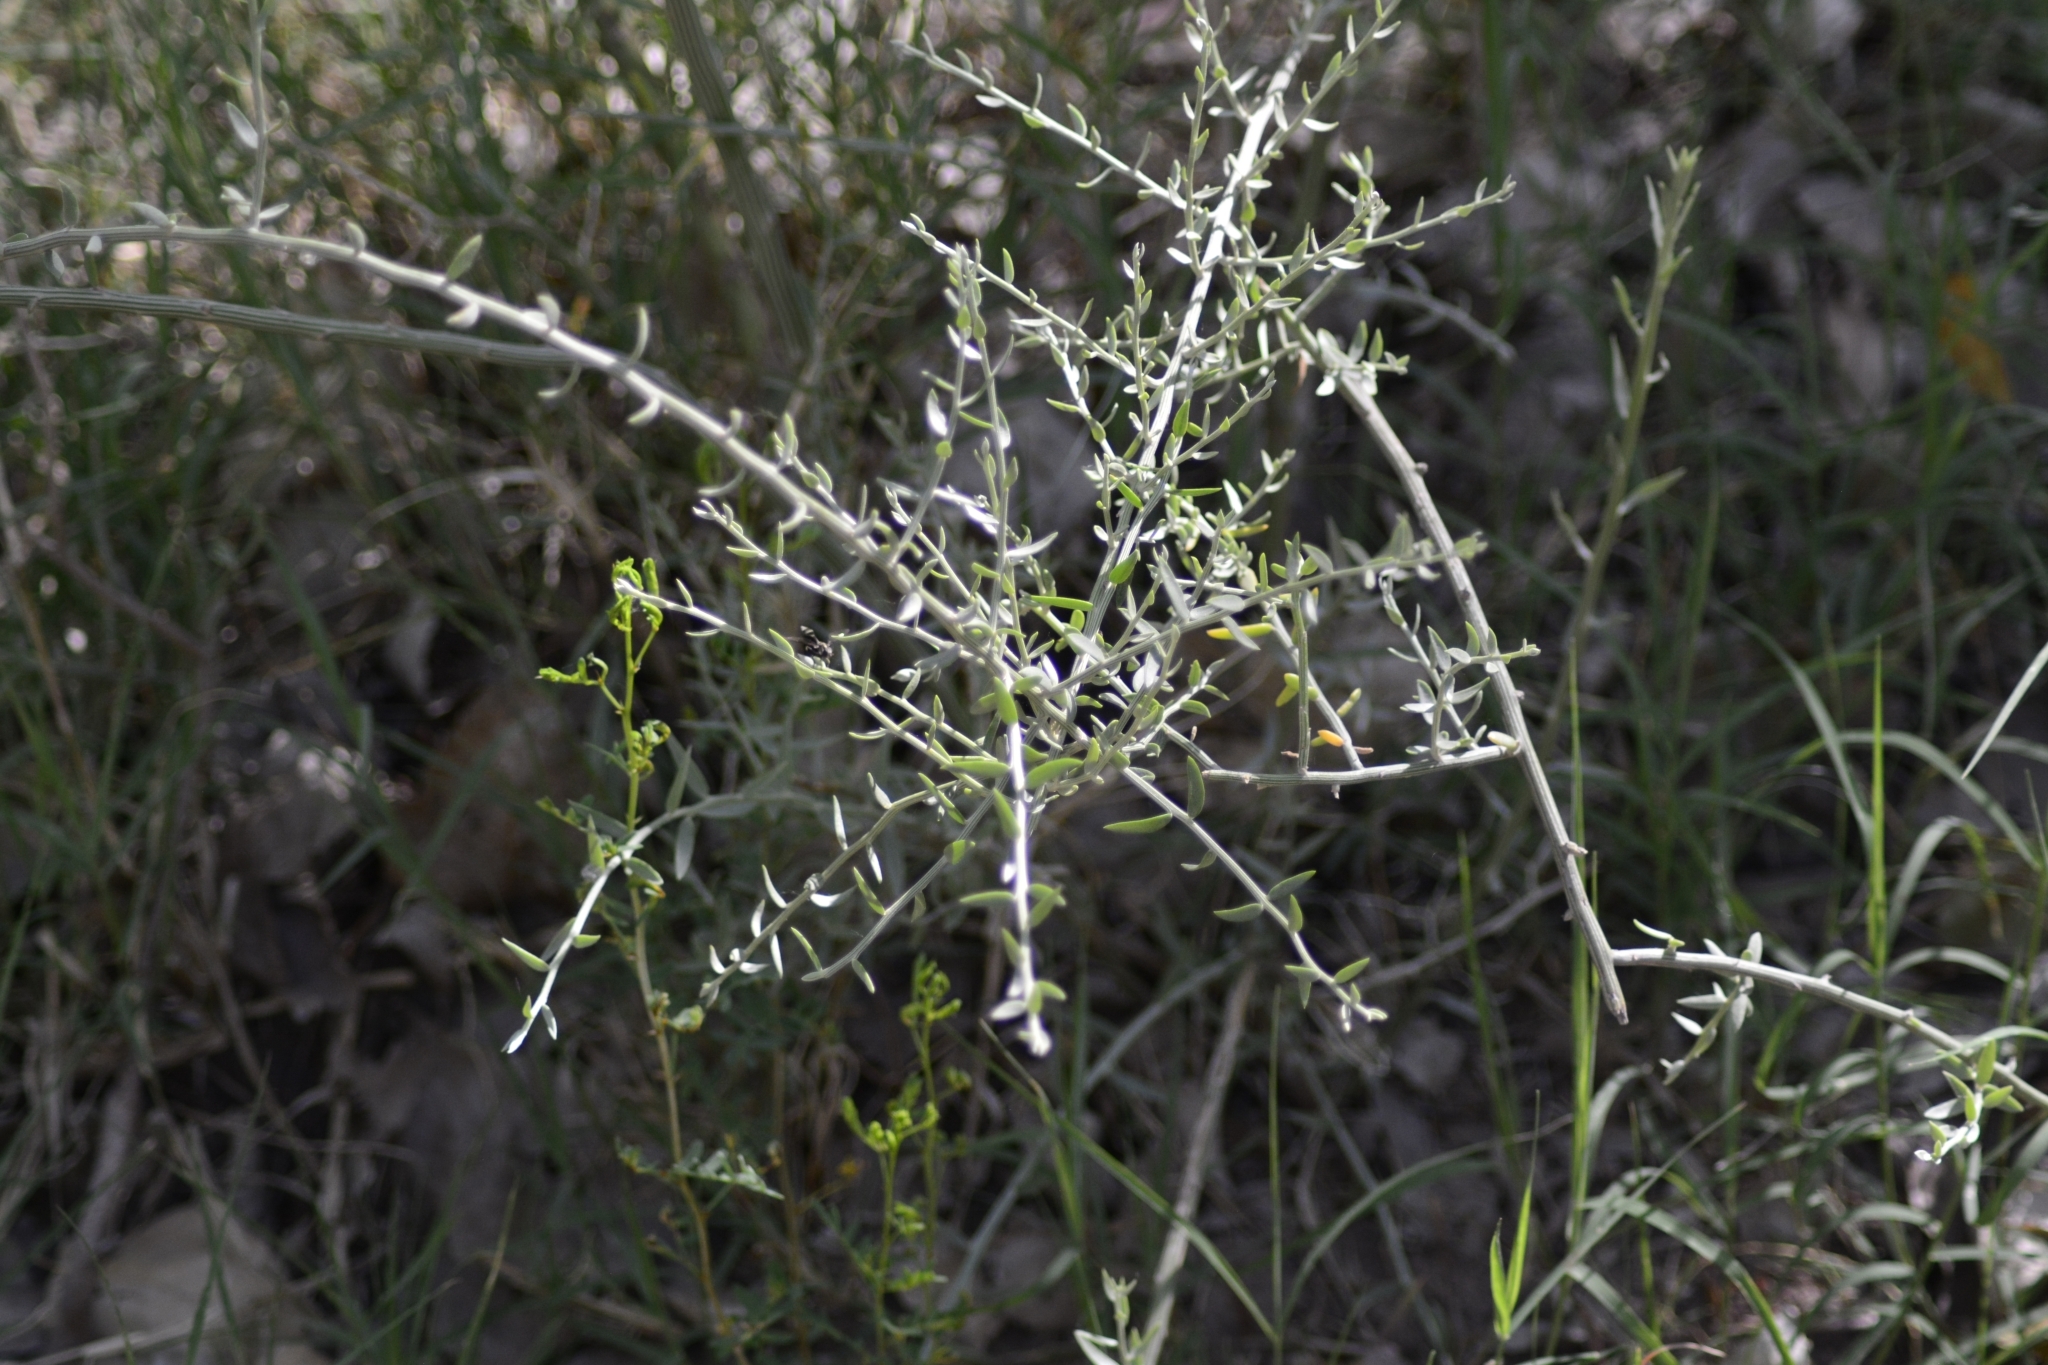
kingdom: Plantae
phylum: Tracheophyta
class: Magnoliopsida
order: Asterales
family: Asteraceae
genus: Cyclolepis
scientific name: Cyclolepis genistoides
